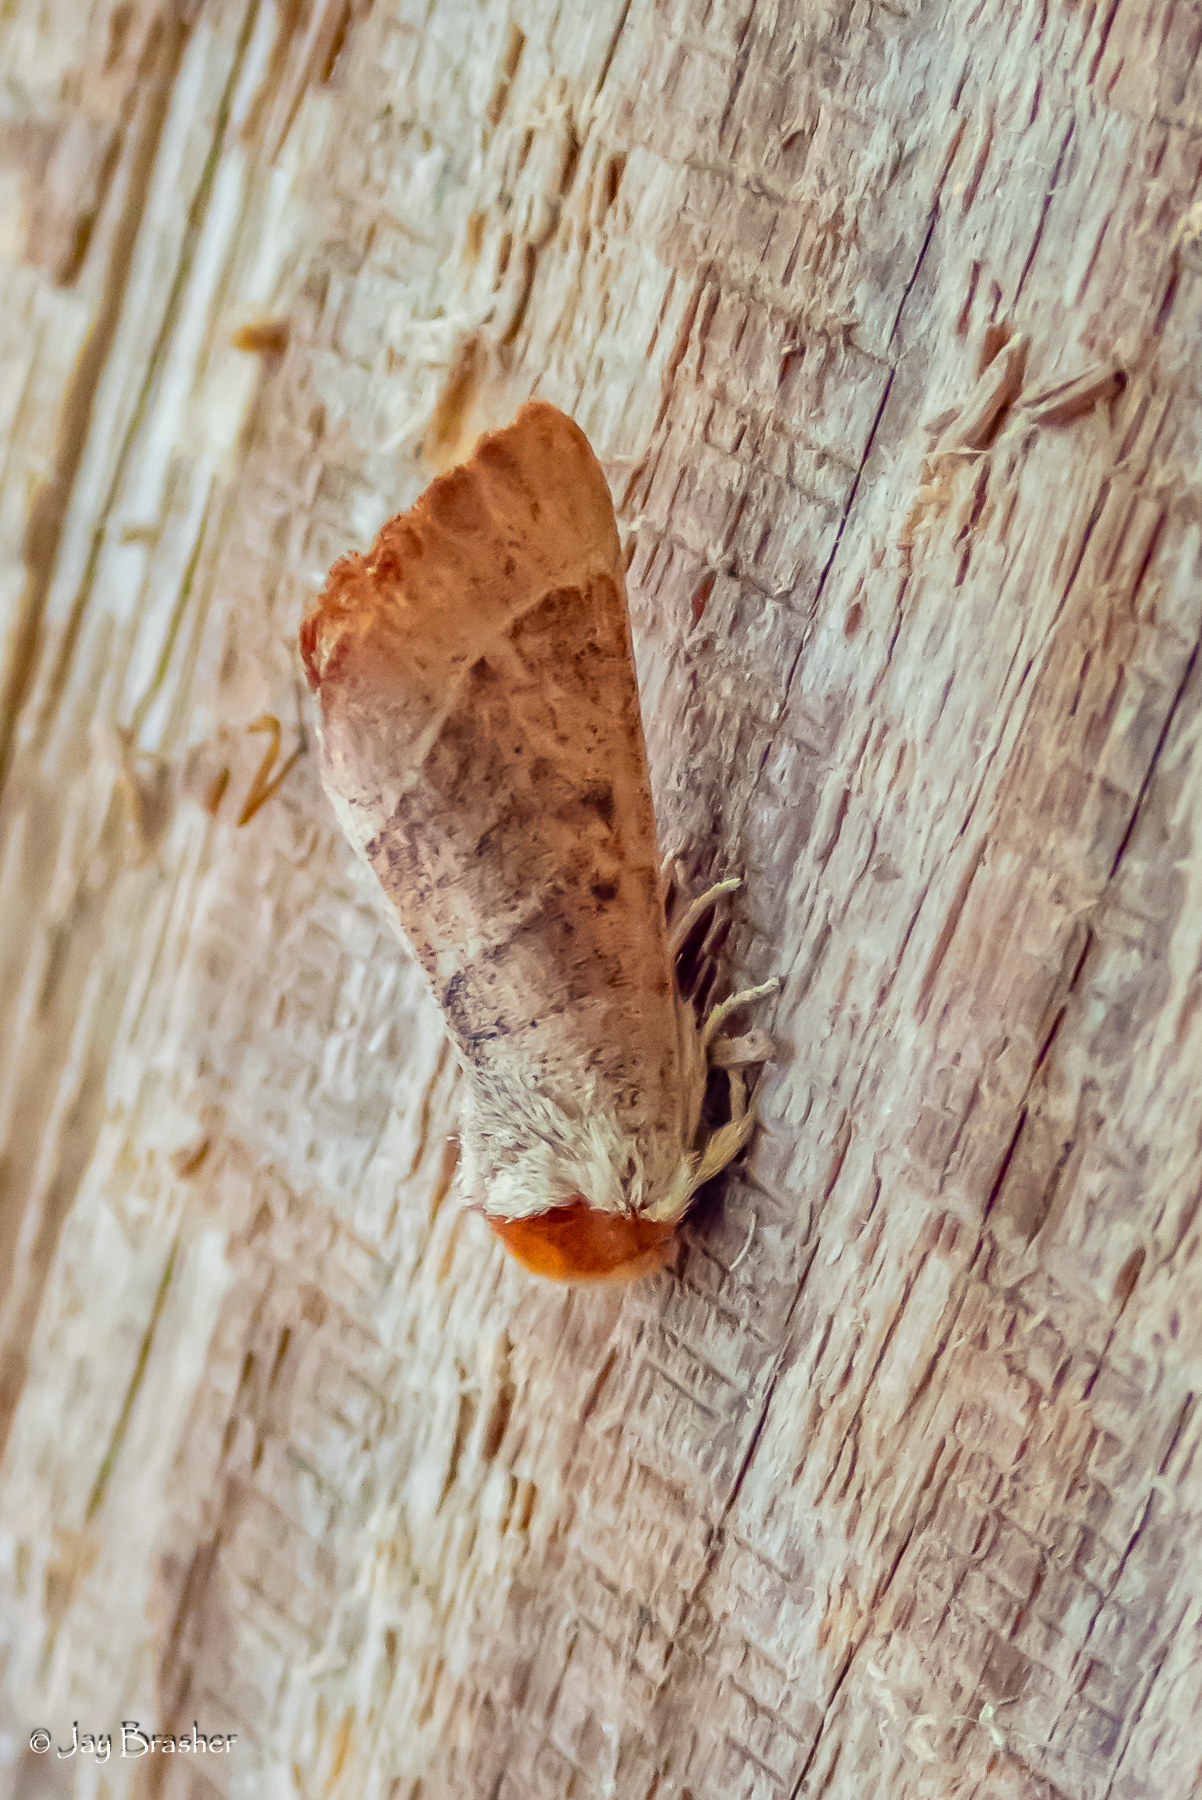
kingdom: Animalia
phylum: Arthropoda
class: Insecta
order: Lepidoptera
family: Notodontidae
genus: Datana
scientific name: Datana contracta
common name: Contracted datana
